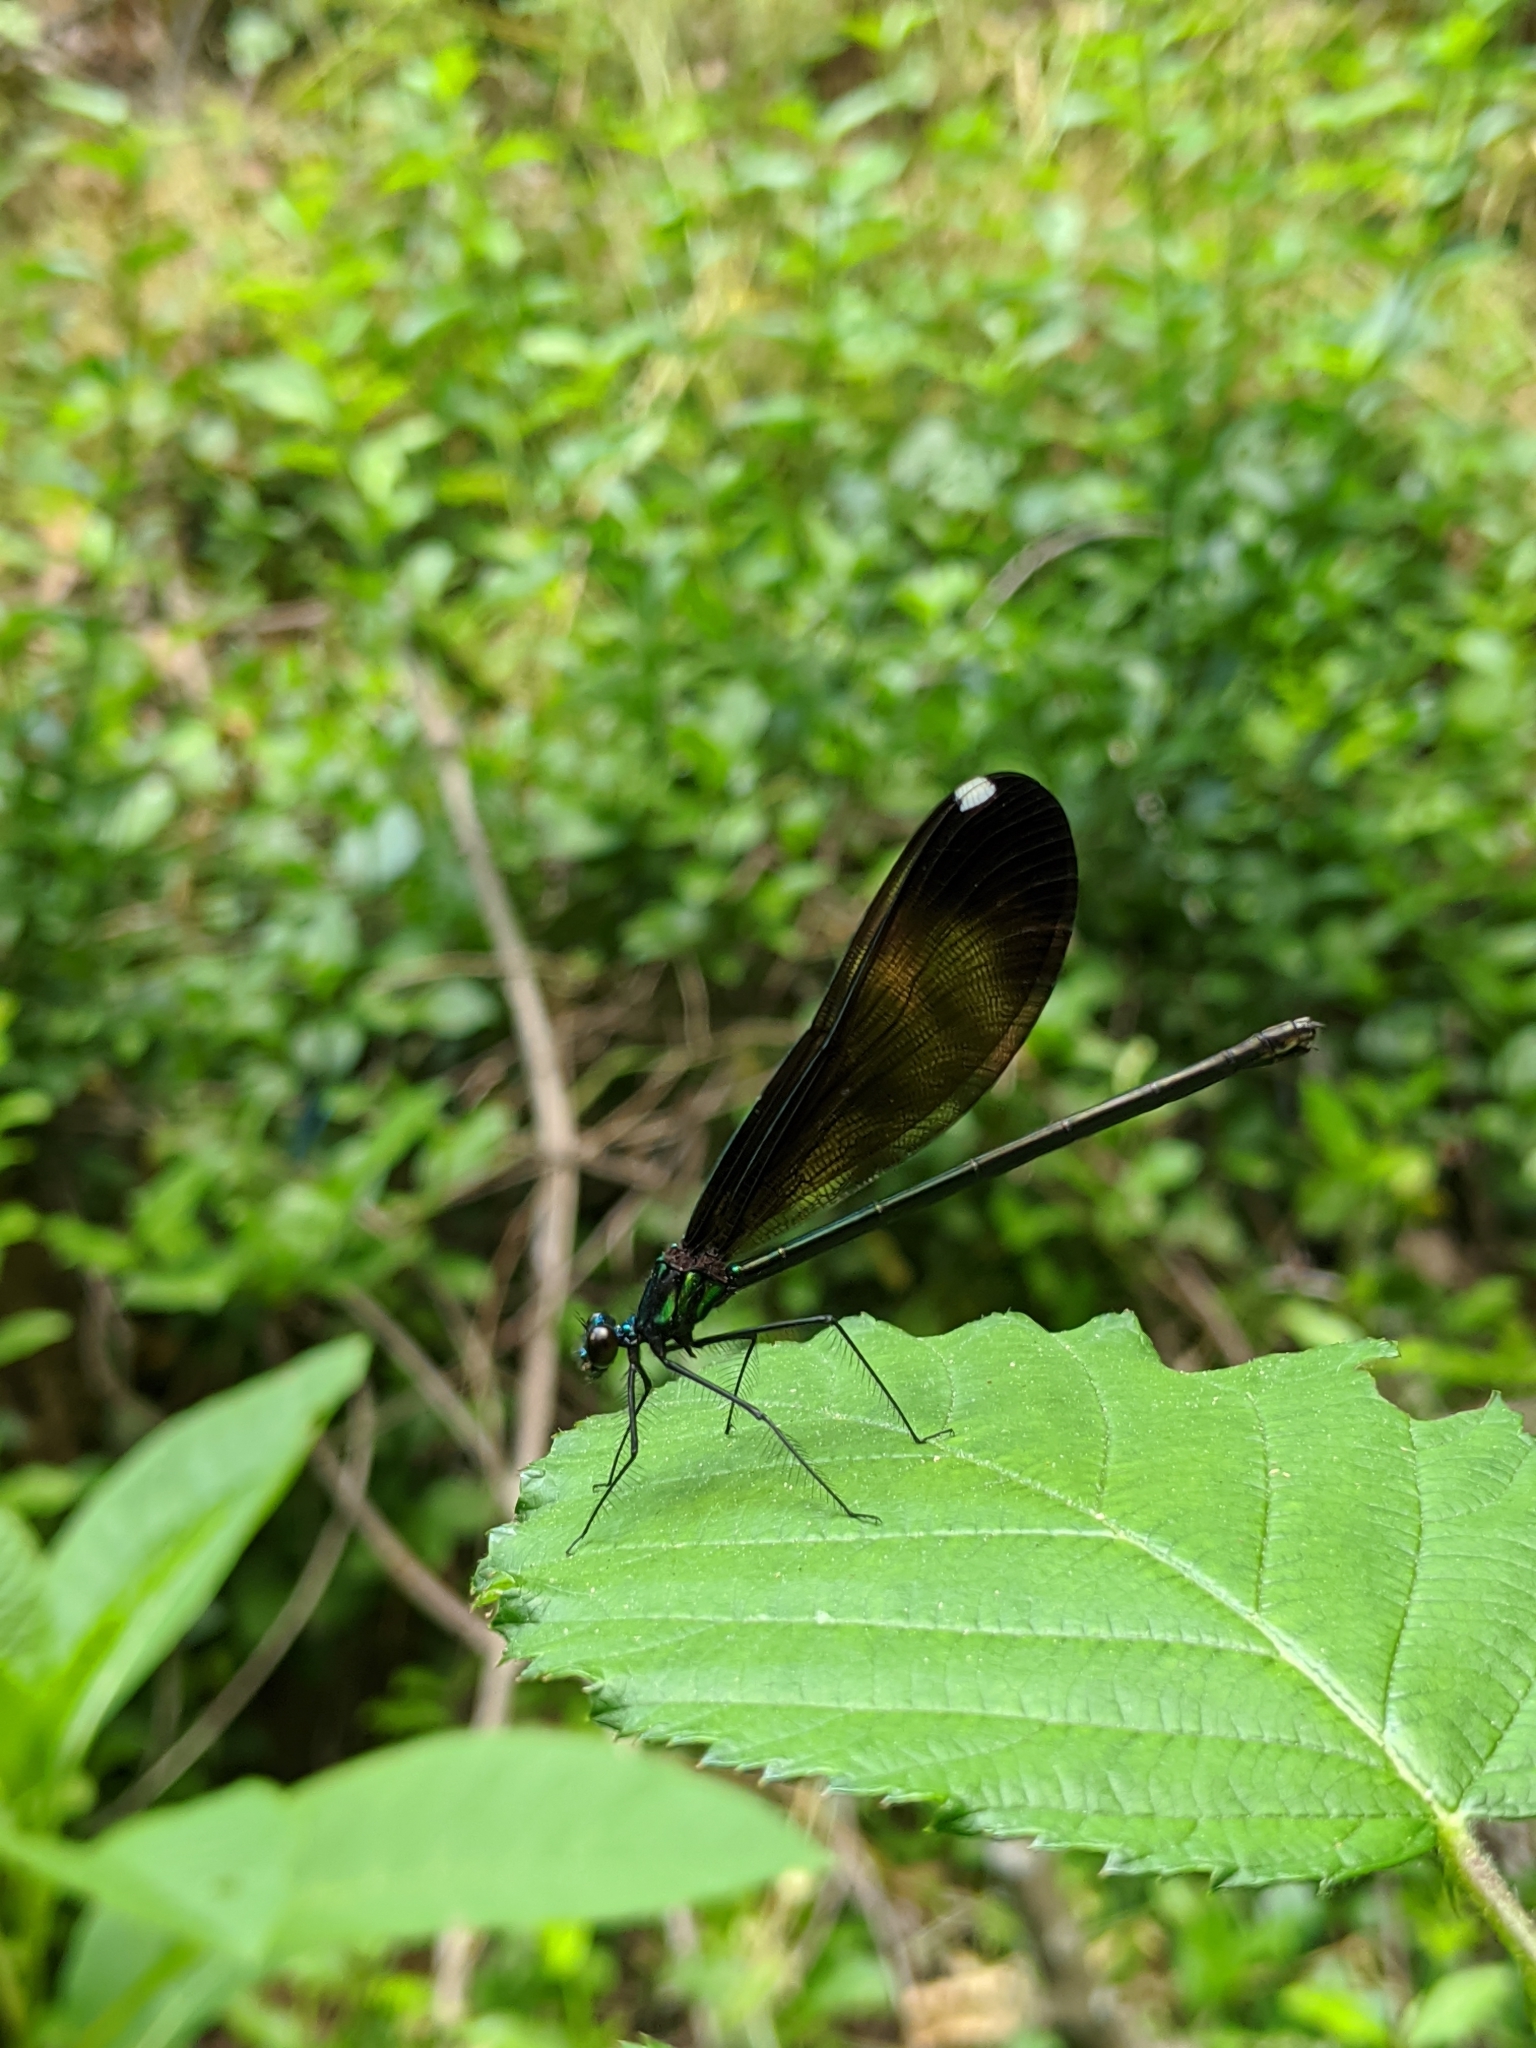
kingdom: Animalia
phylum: Arthropoda
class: Insecta
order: Odonata
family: Calopterygidae
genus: Calopteryx
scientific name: Calopteryx maculata
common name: Ebony jewelwing
